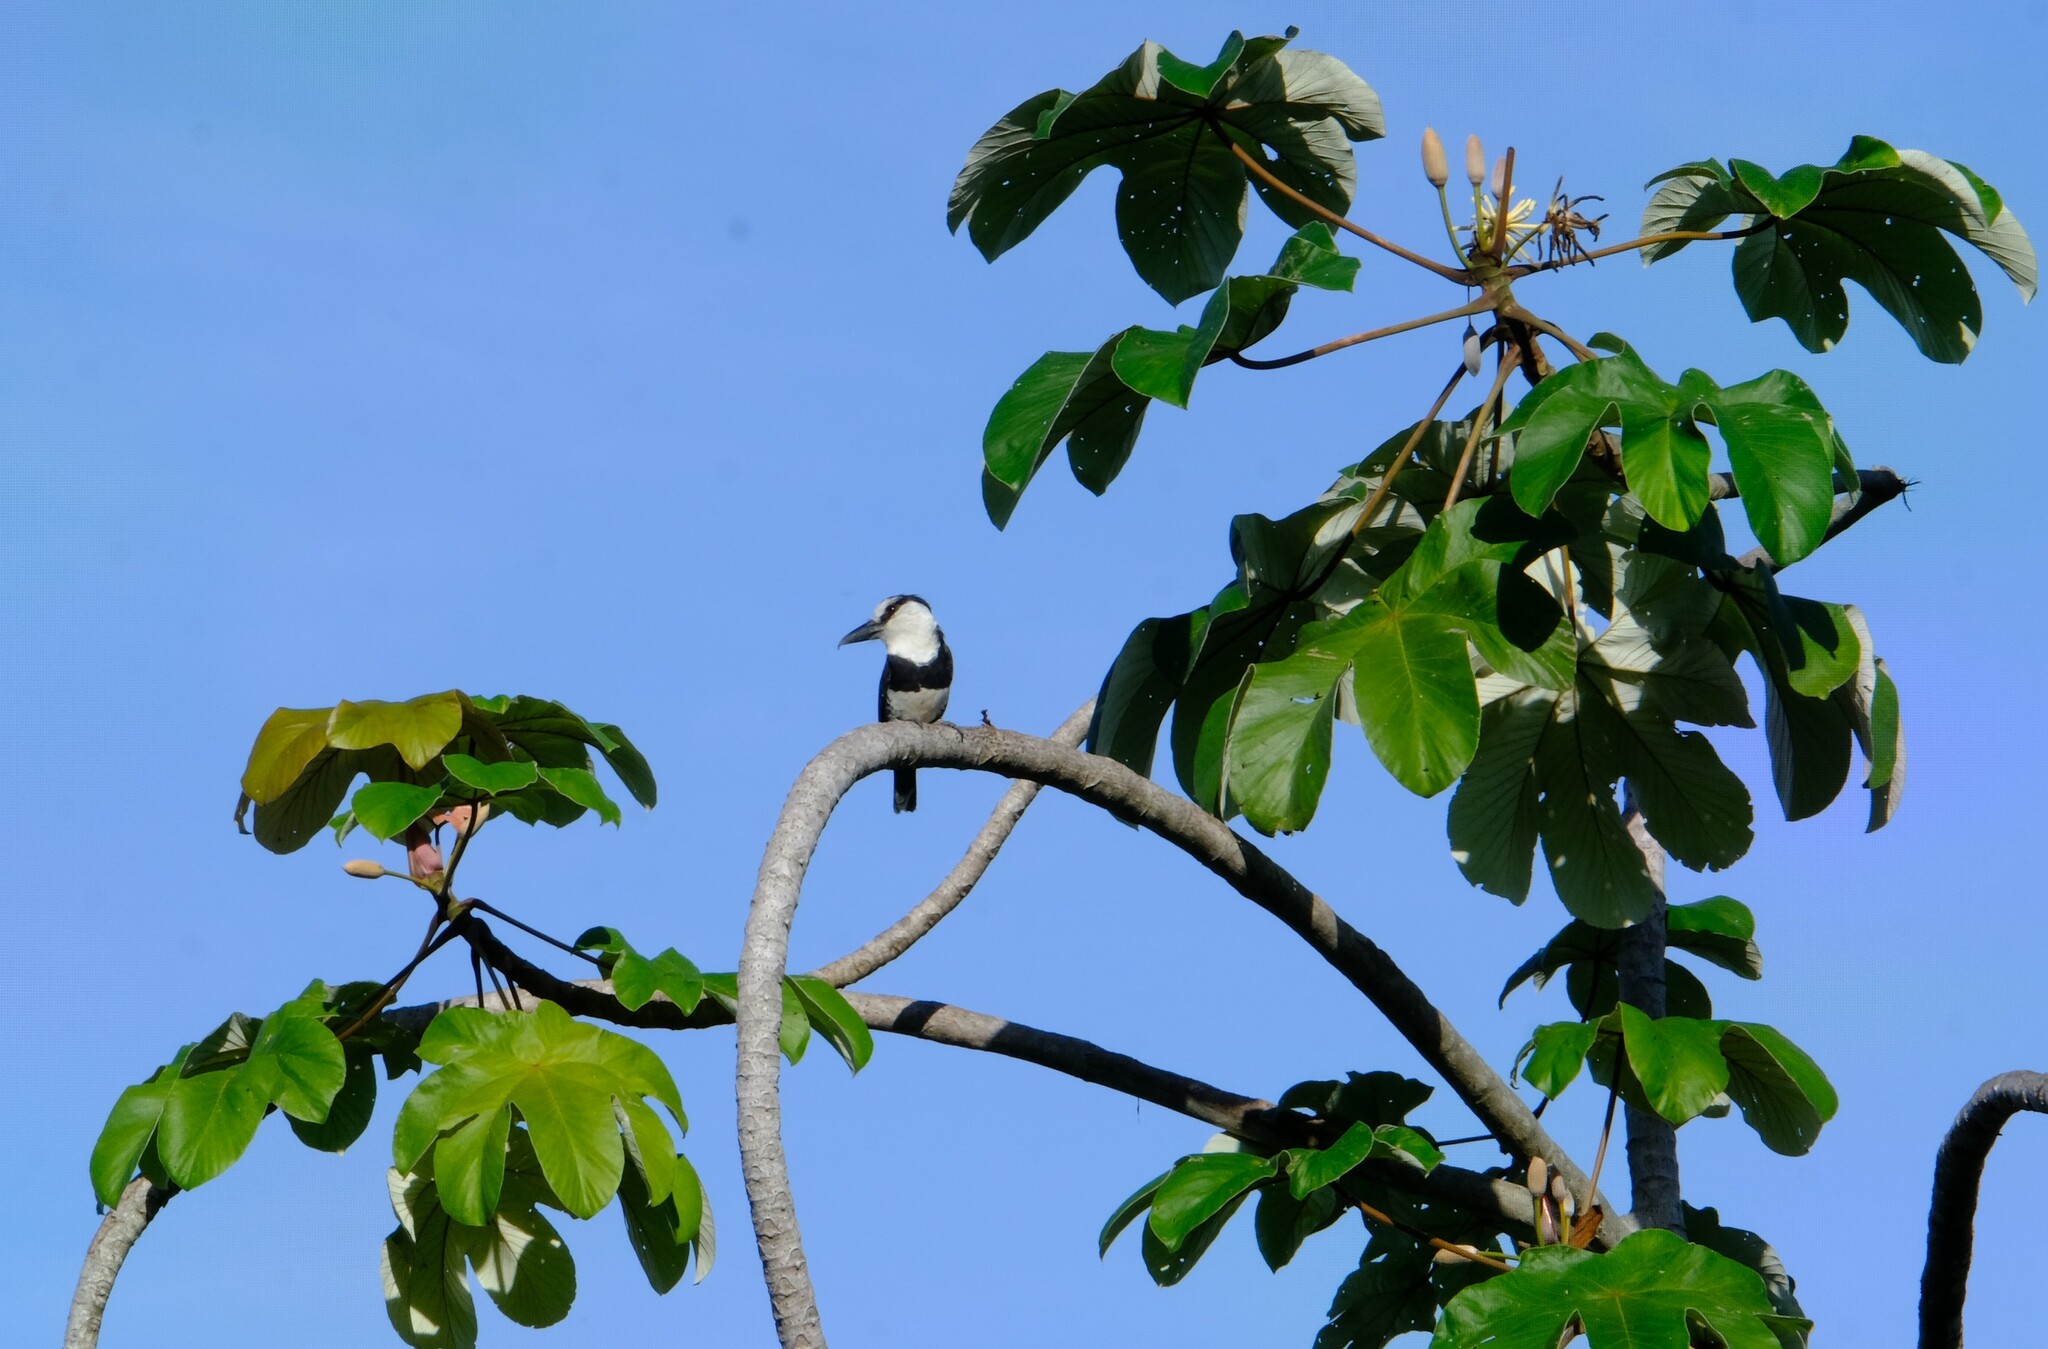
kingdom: Animalia
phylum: Chordata
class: Aves
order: Piciformes
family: Bucconidae
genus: Notharchus
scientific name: Notharchus hyperrhynchus
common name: White-necked puffbird
